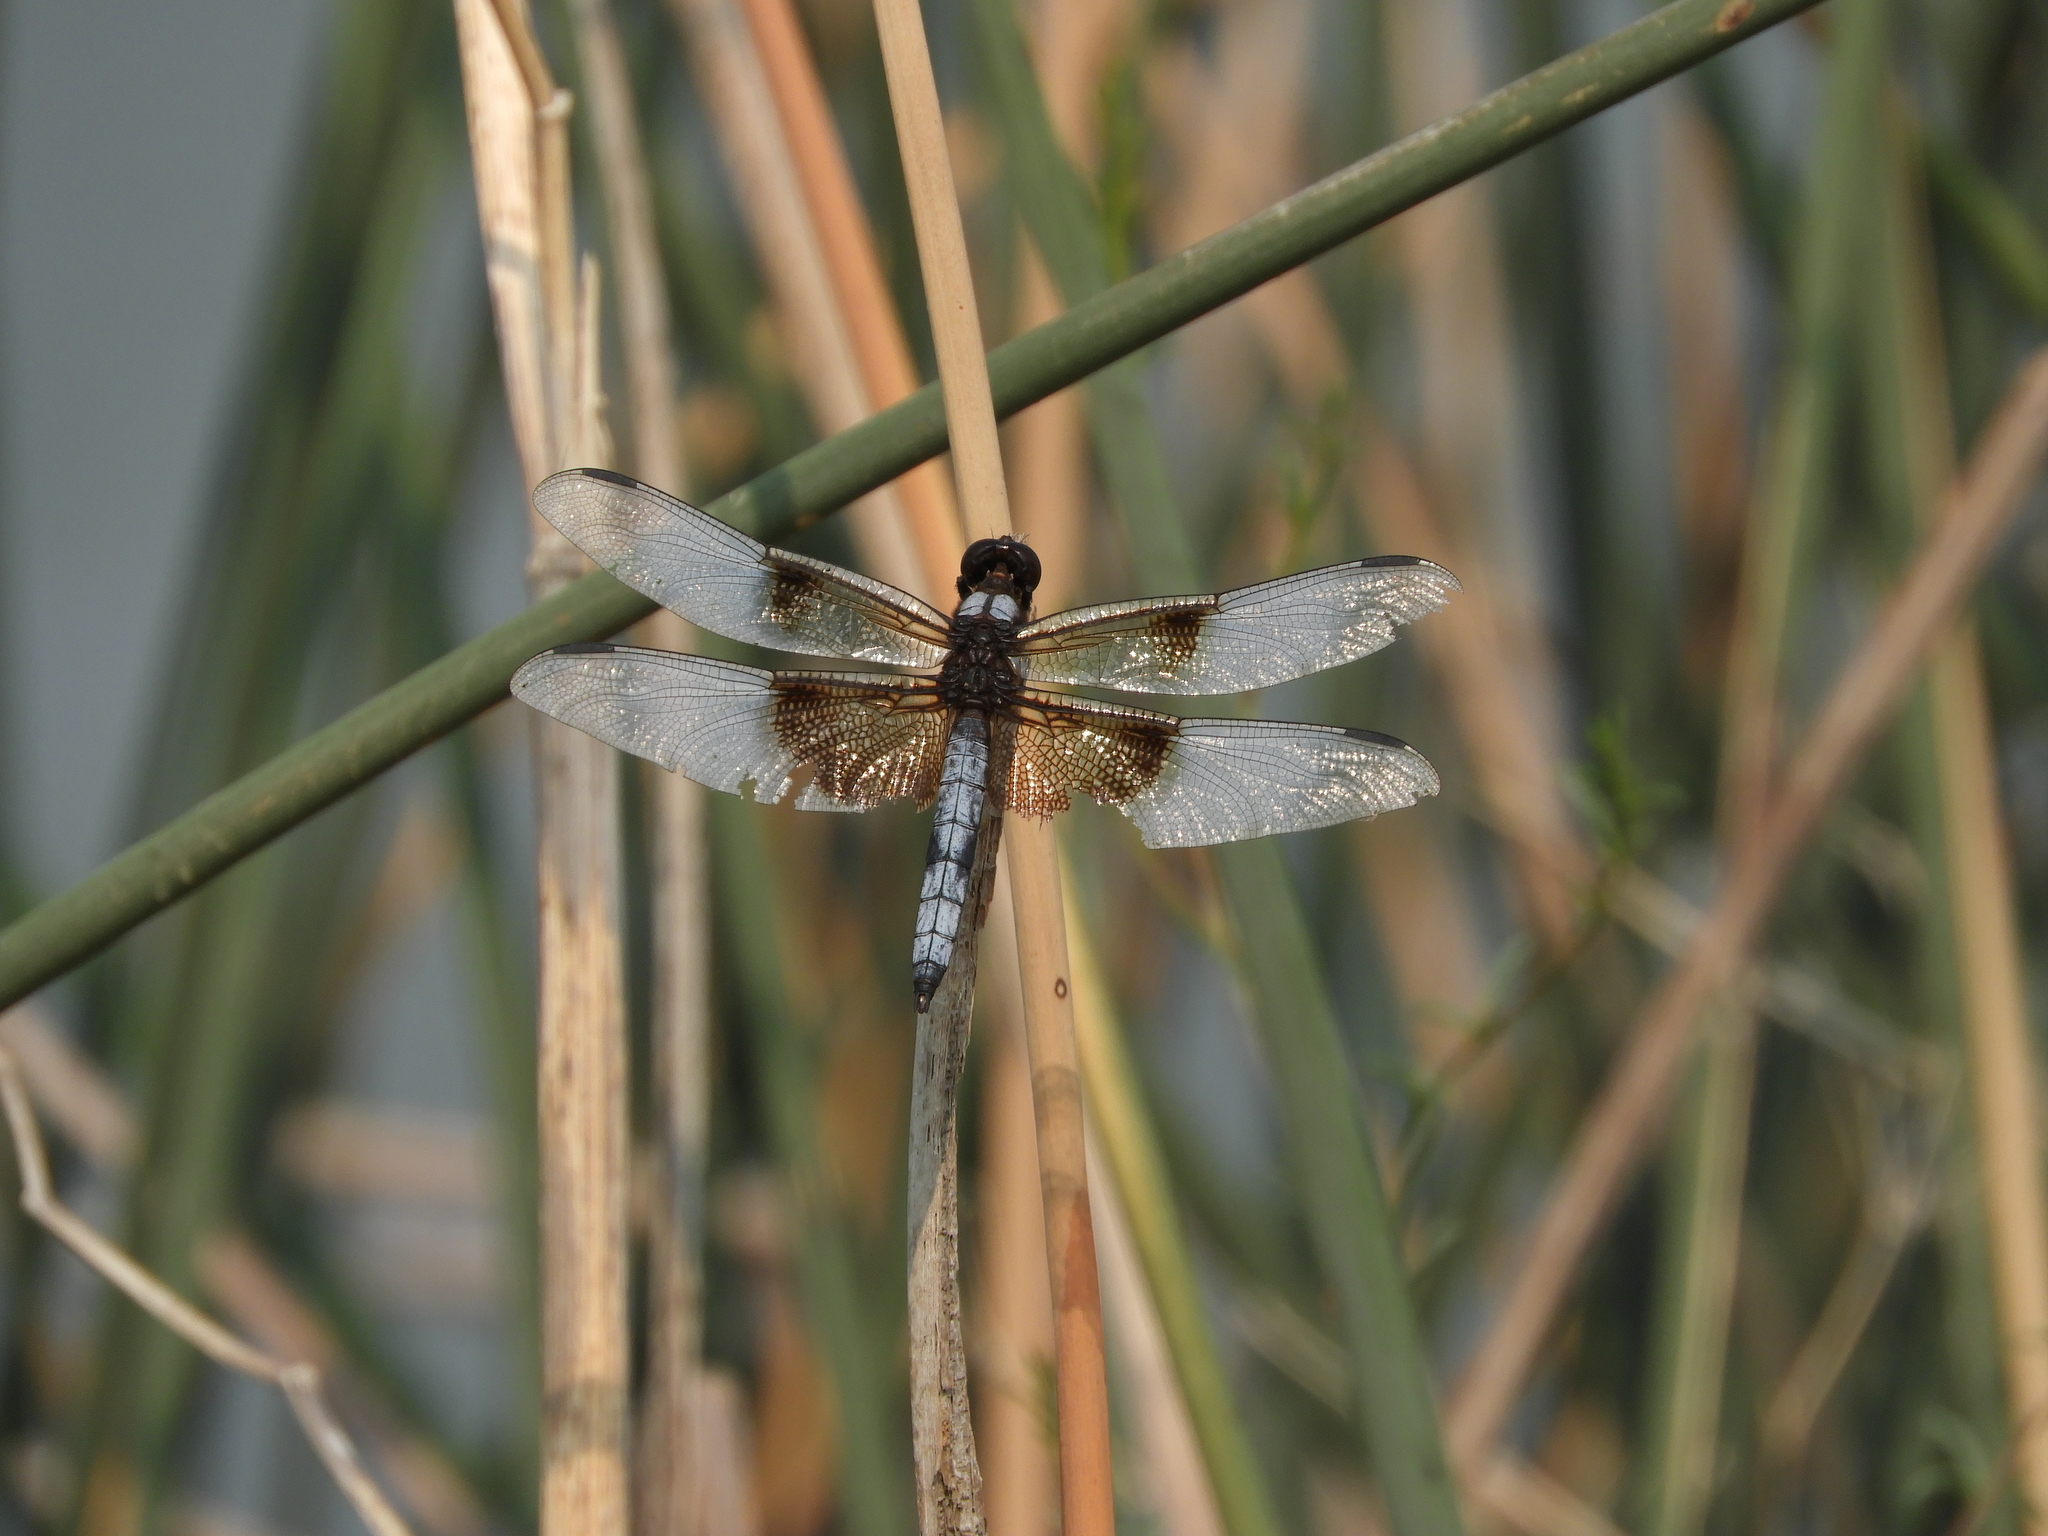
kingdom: Animalia
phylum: Arthropoda
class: Insecta
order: Odonata
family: Libellulidae
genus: Libellula
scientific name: Libellula luctuosa
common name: Widow skimmer
